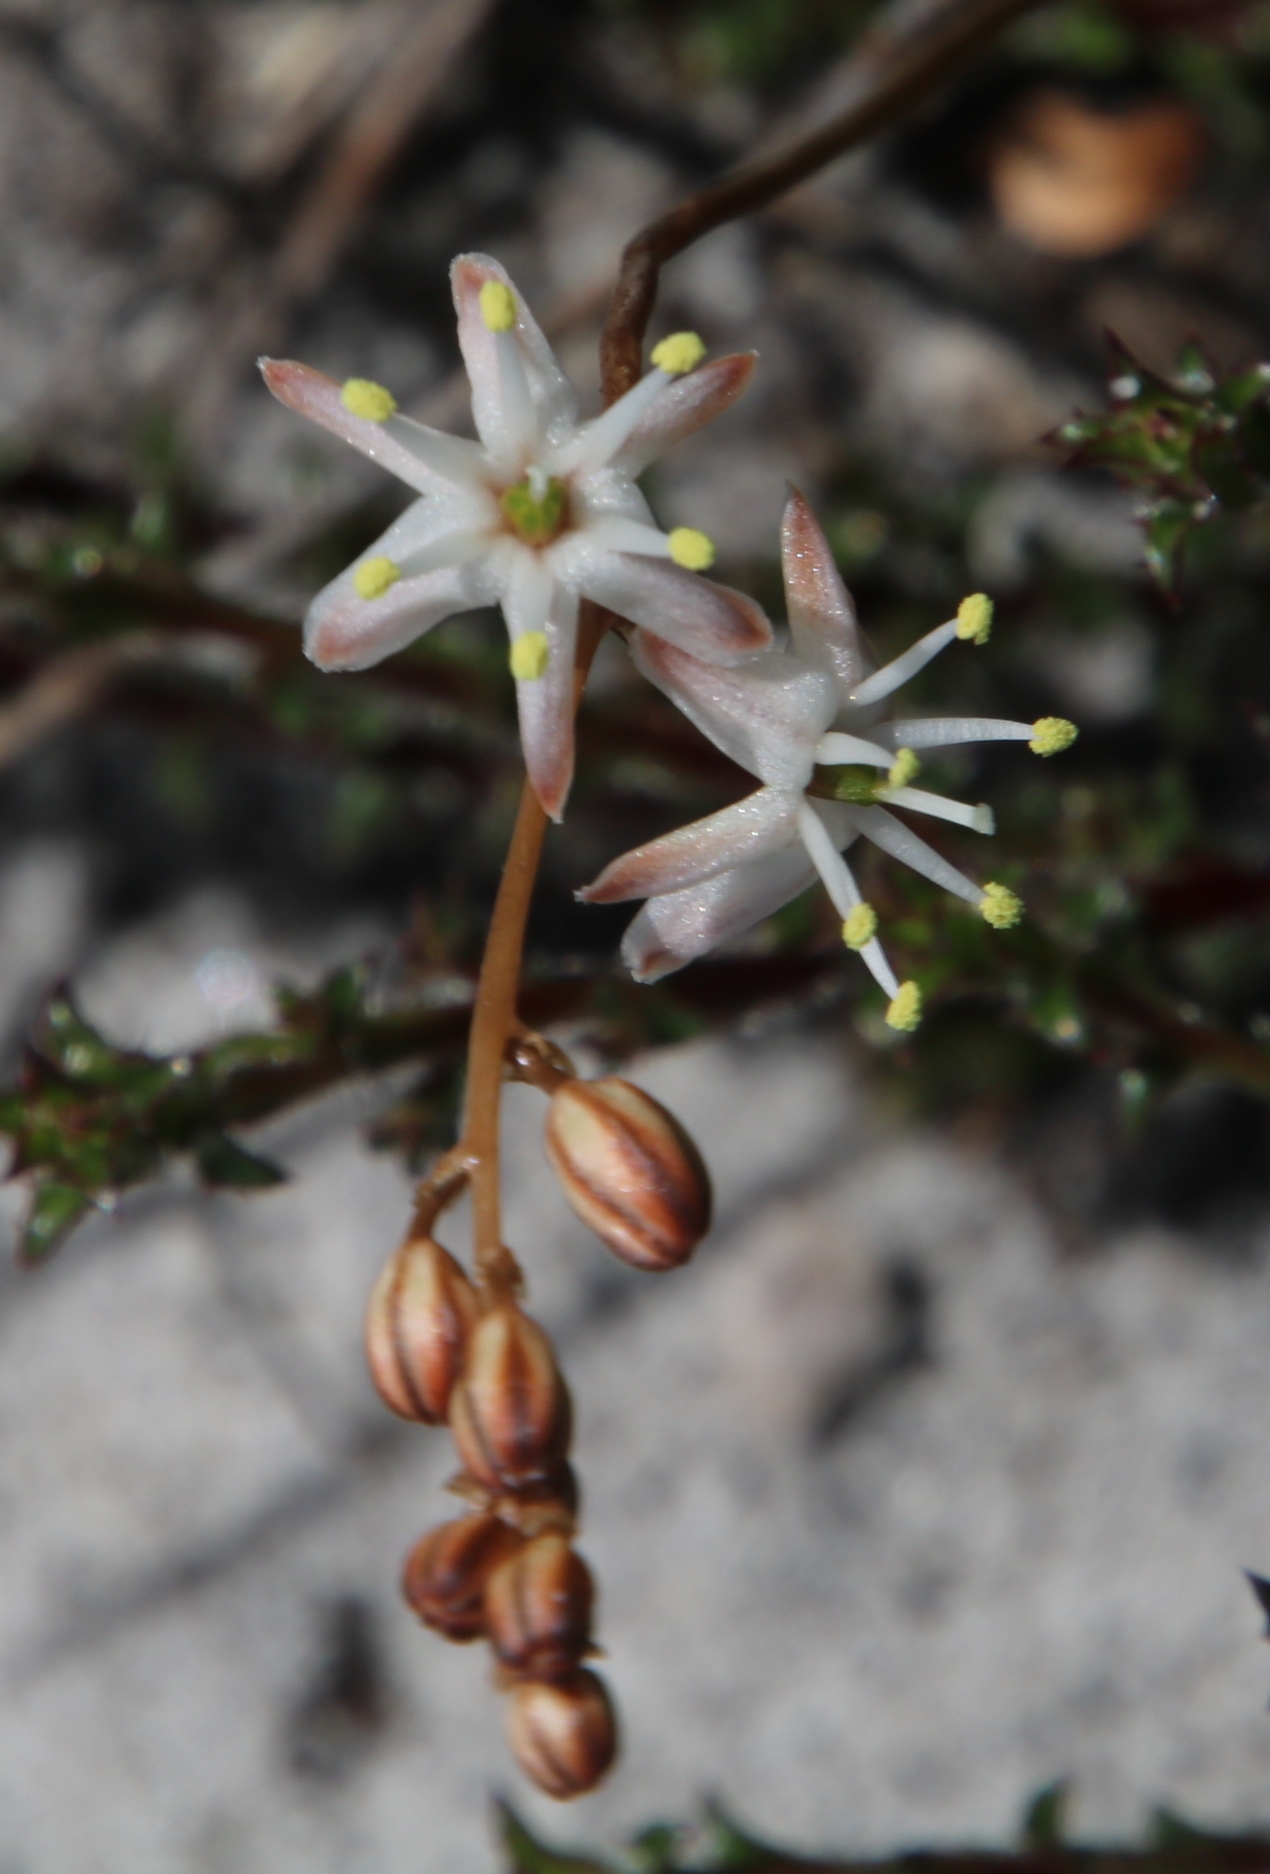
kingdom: Plantae
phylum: Tracheophyta
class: Liliopsida
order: Asparagales
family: Asparagaceae
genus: Drimia
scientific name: Drimia salteri
